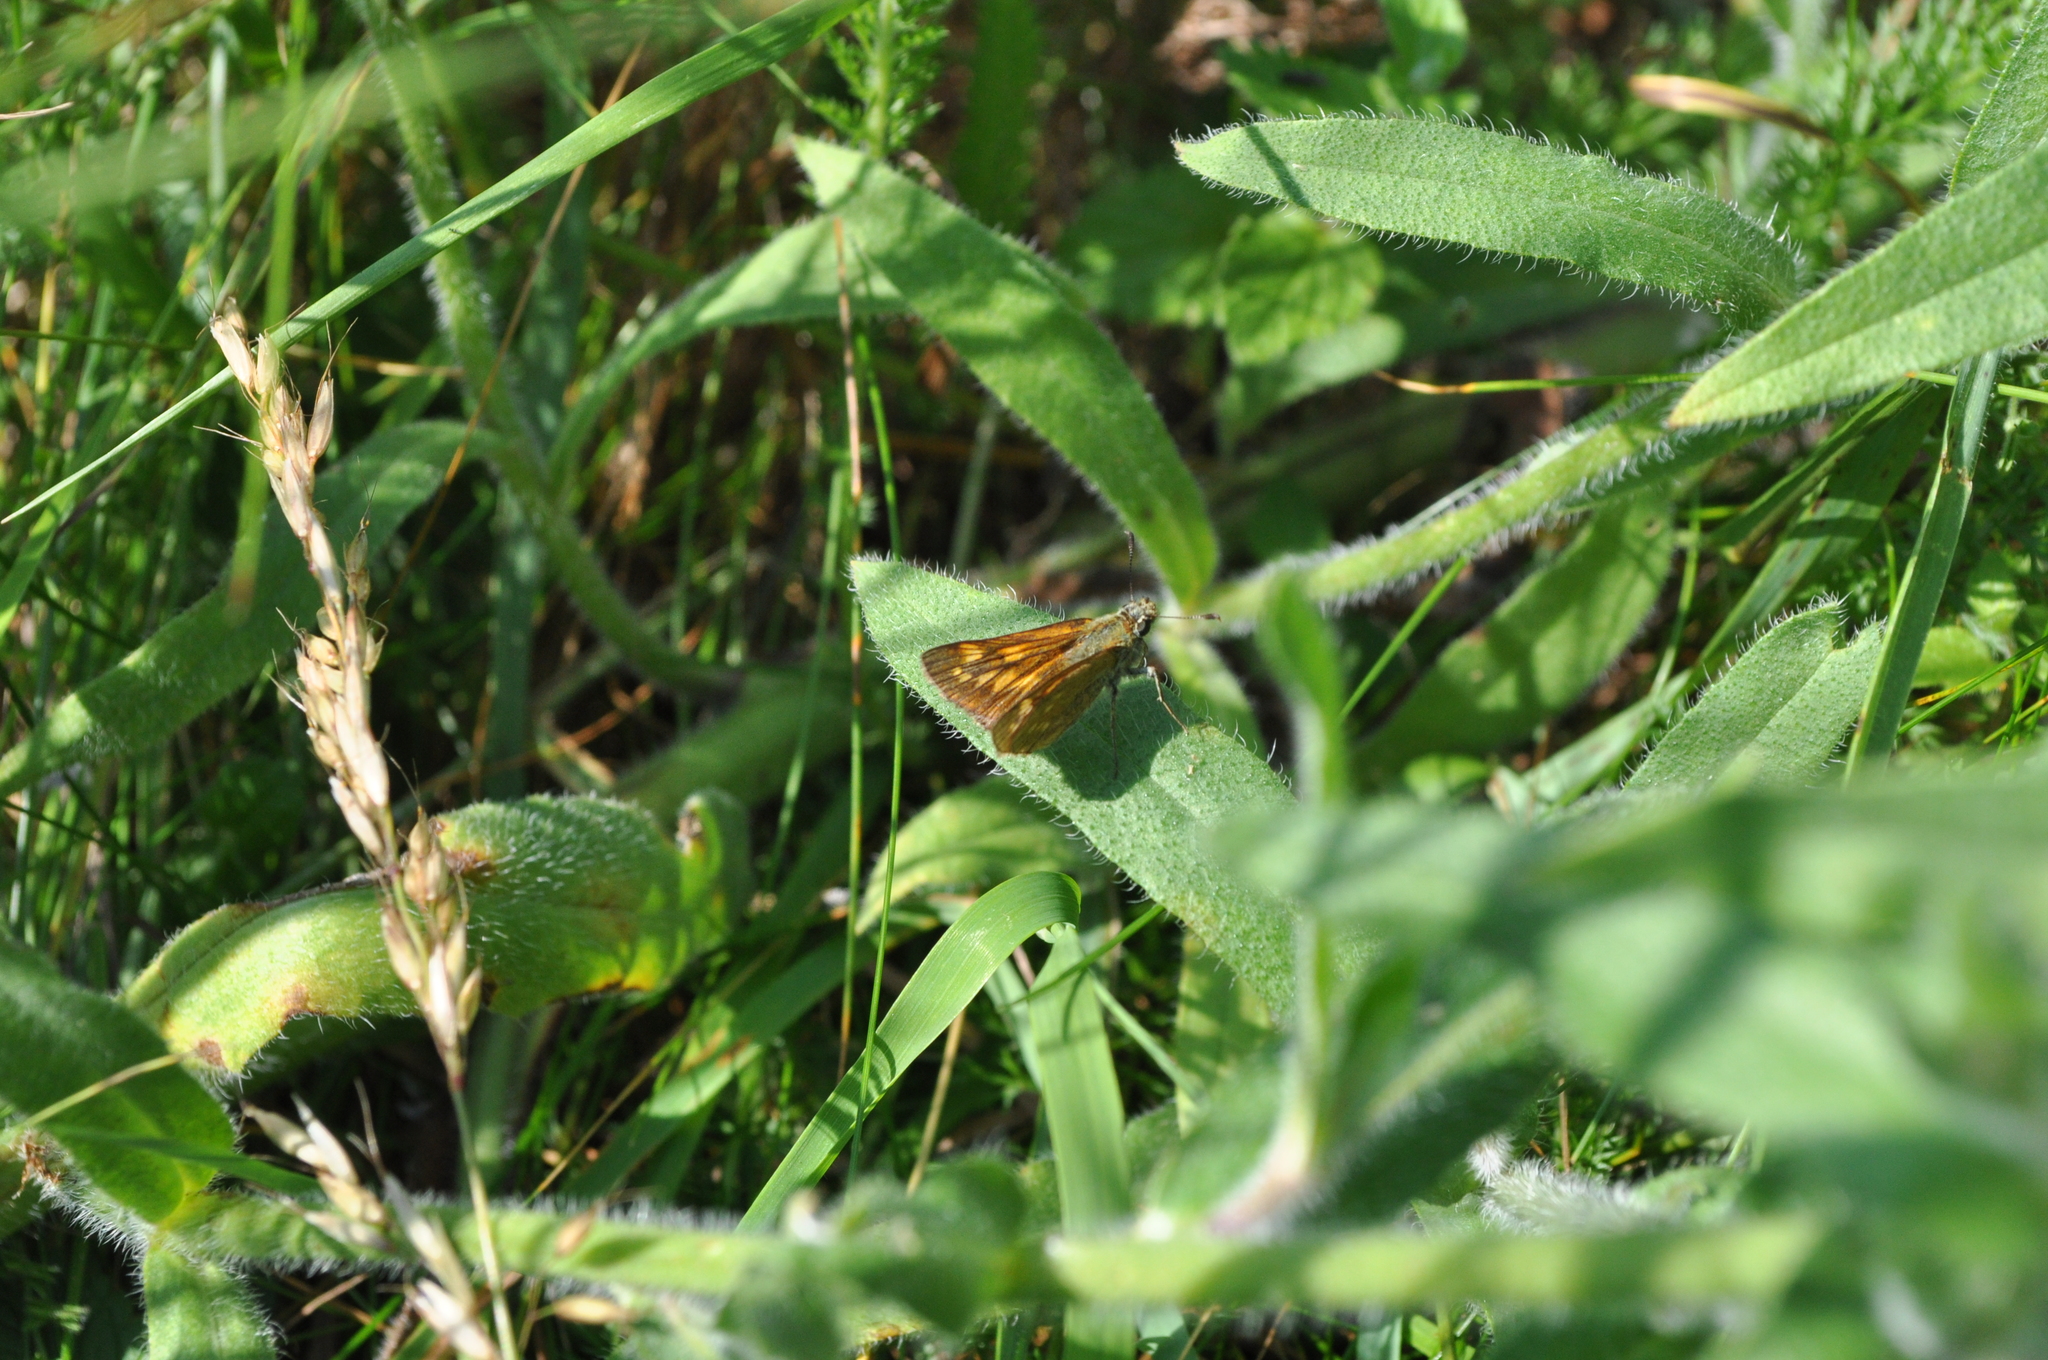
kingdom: Animalia
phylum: Arthropoda
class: Insecta
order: Lepidoptera
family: Hesperiidae
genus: Ochlodes
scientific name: Ochlodes venata
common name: Large skipper
